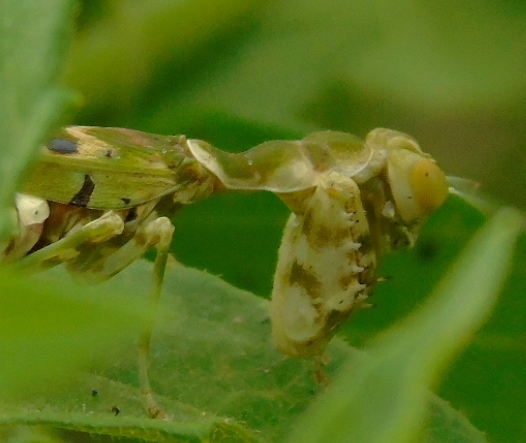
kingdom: Animalia
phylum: Arthropoda
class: Insecta
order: Mantodea
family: Acanthopidae
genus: Acontista
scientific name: Acontista mexicana
